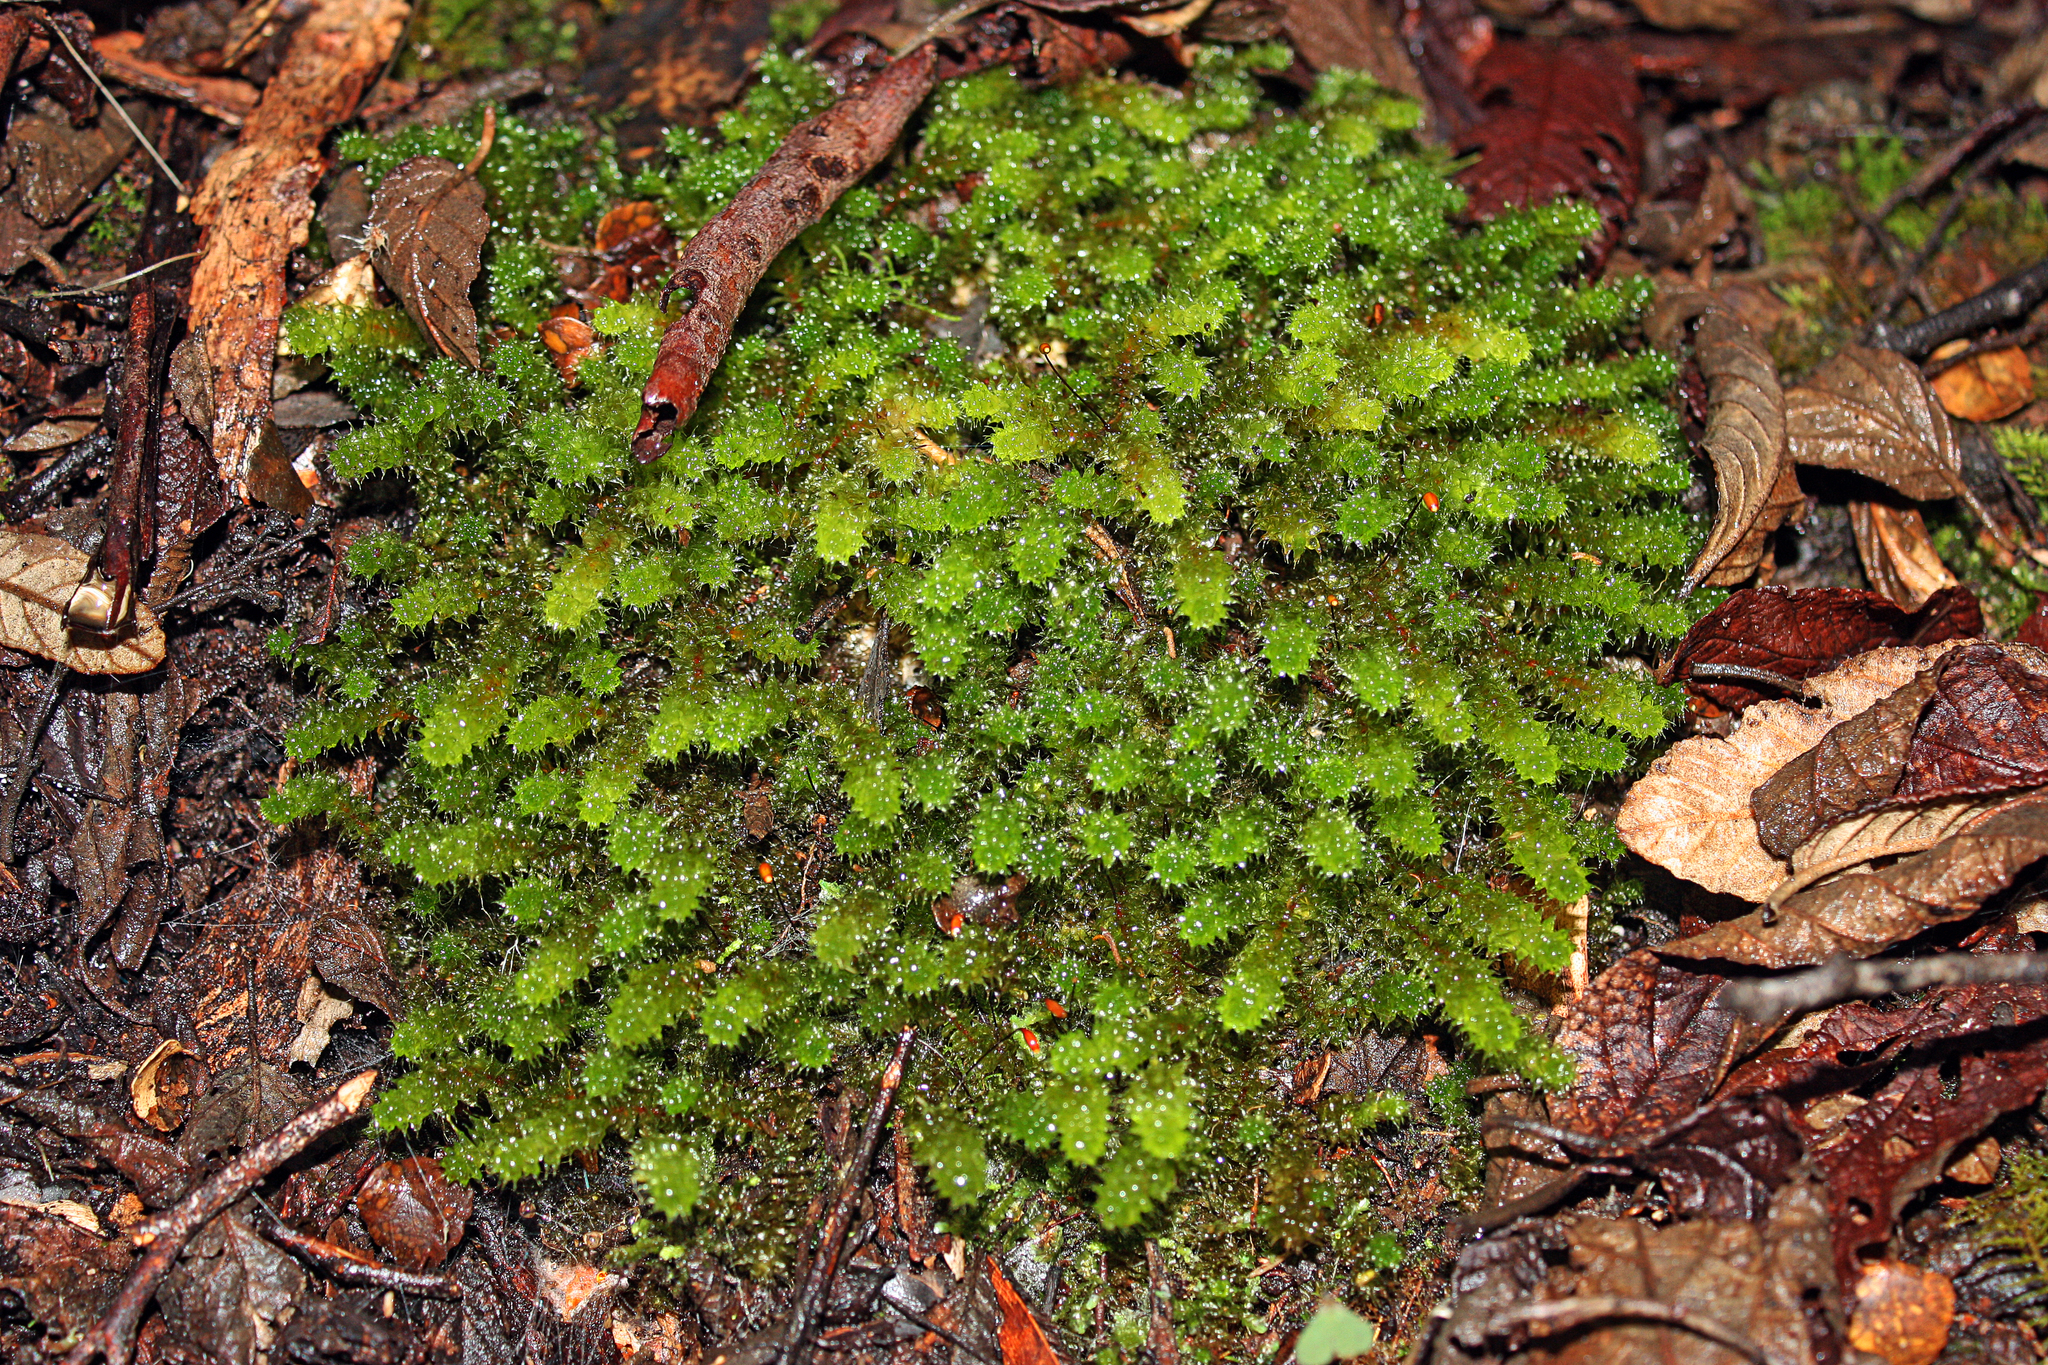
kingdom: Plantae
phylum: Bryophyta
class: Bryopsida
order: Ptychomniales
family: Ptychomniaceae
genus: Ptychomnion
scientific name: Ptychomnion aciculare
